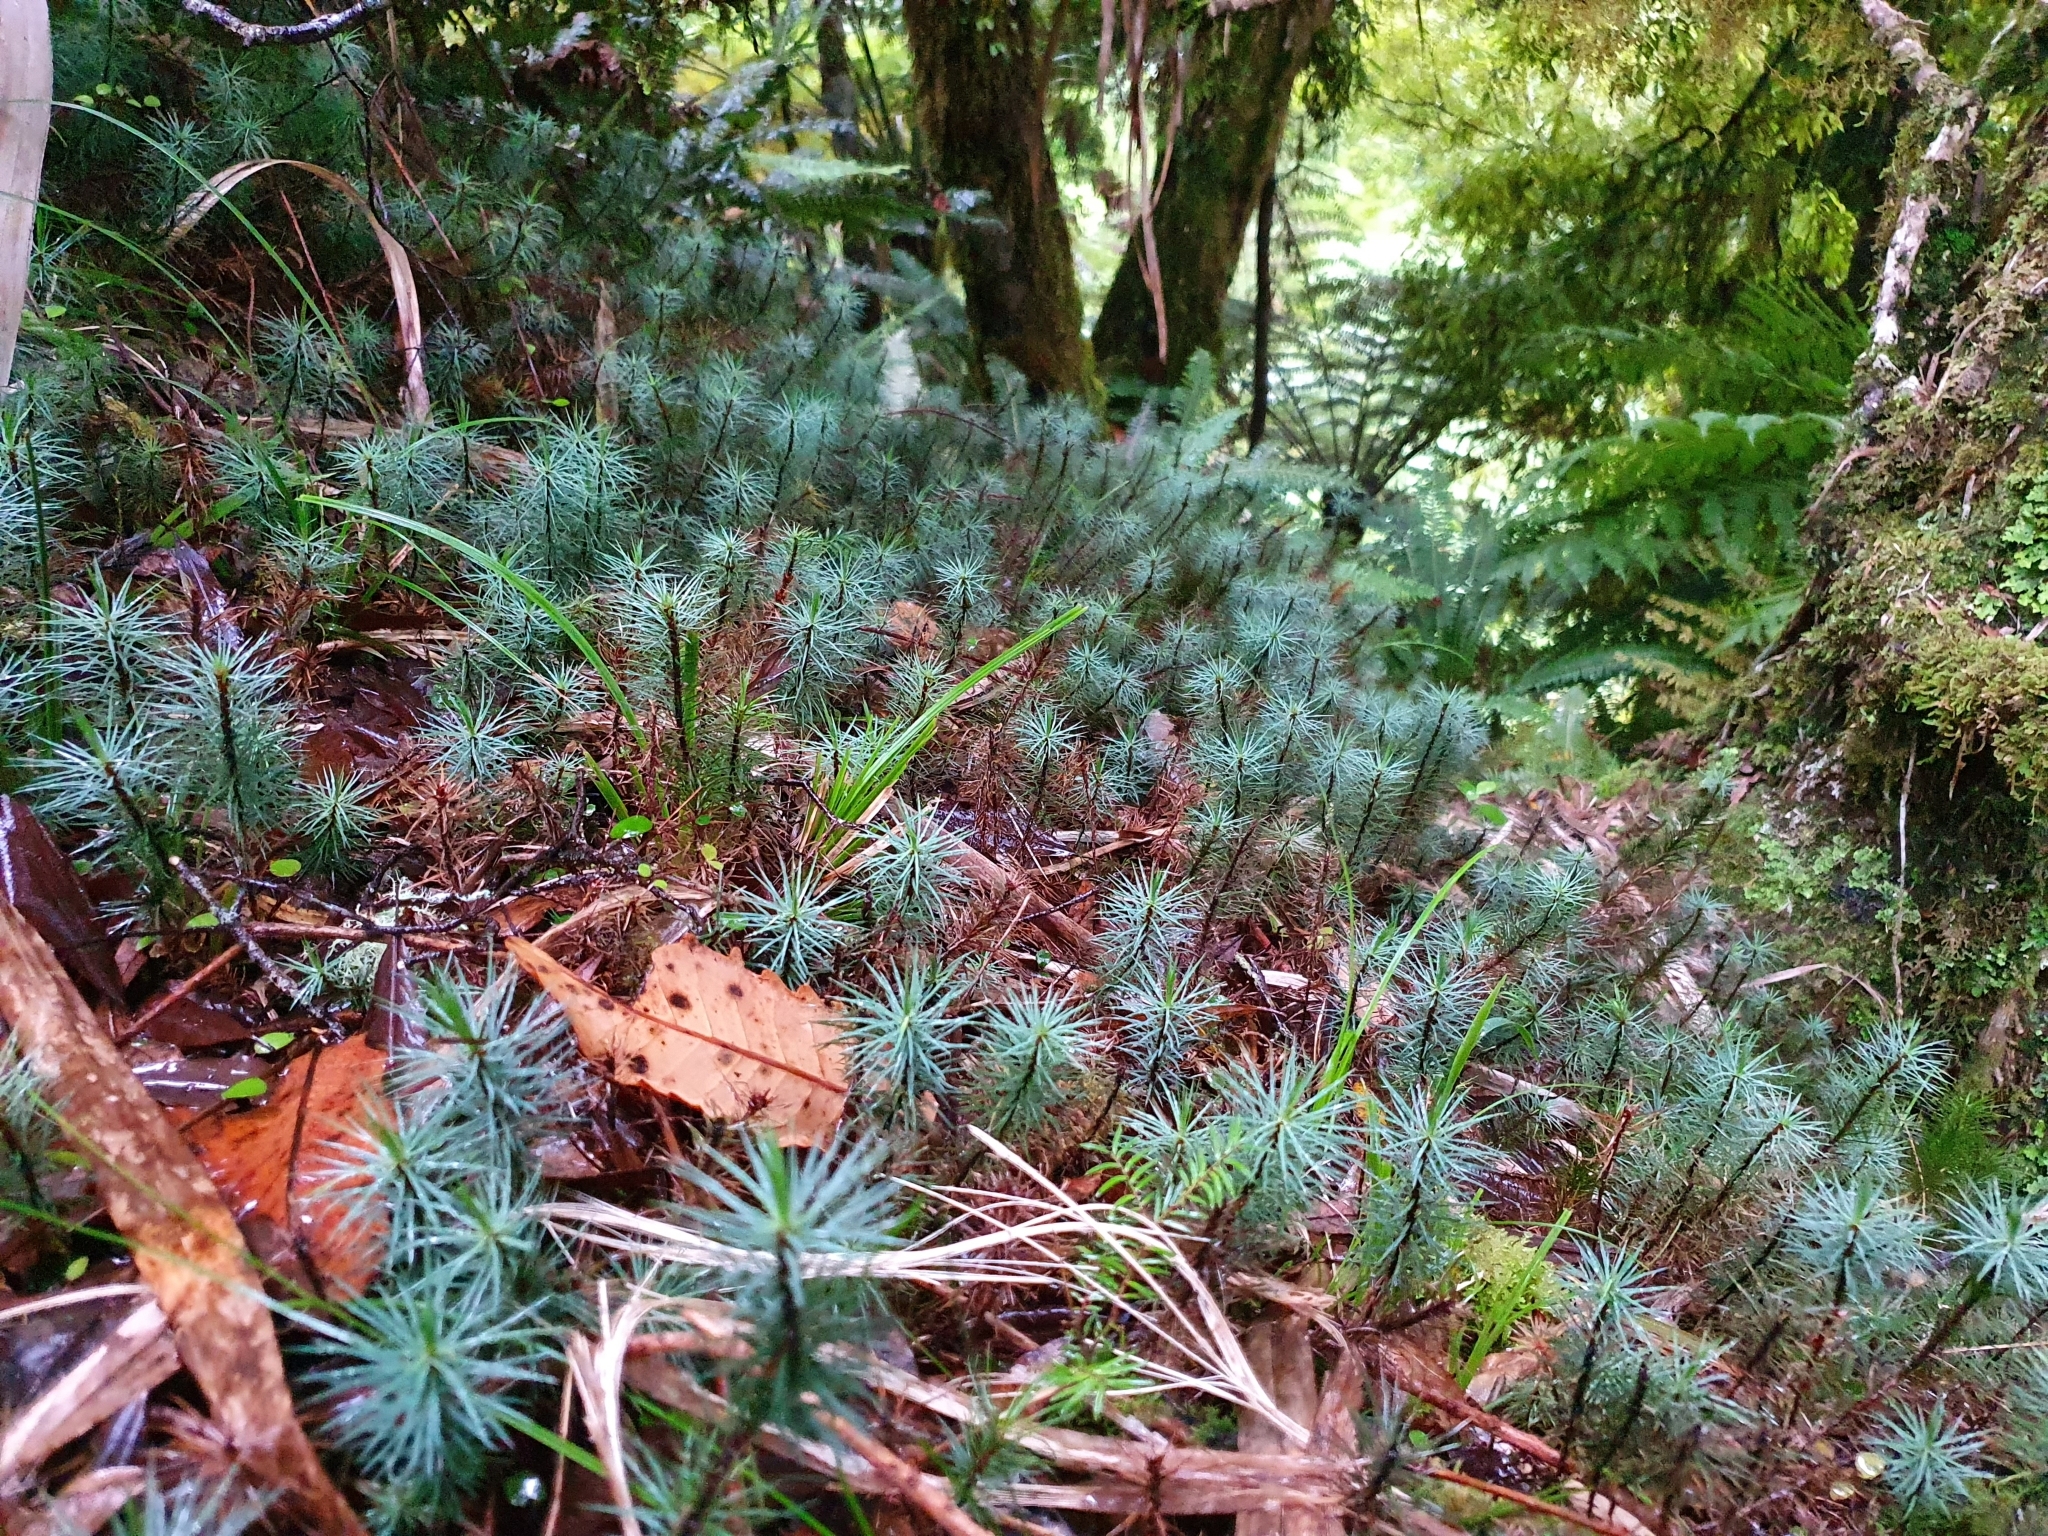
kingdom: Plantae
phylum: Bryophyta
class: Polytrichopsida
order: Polytrichales
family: Polytrichaceae
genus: Dawsonia
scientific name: Dawsonia superba
